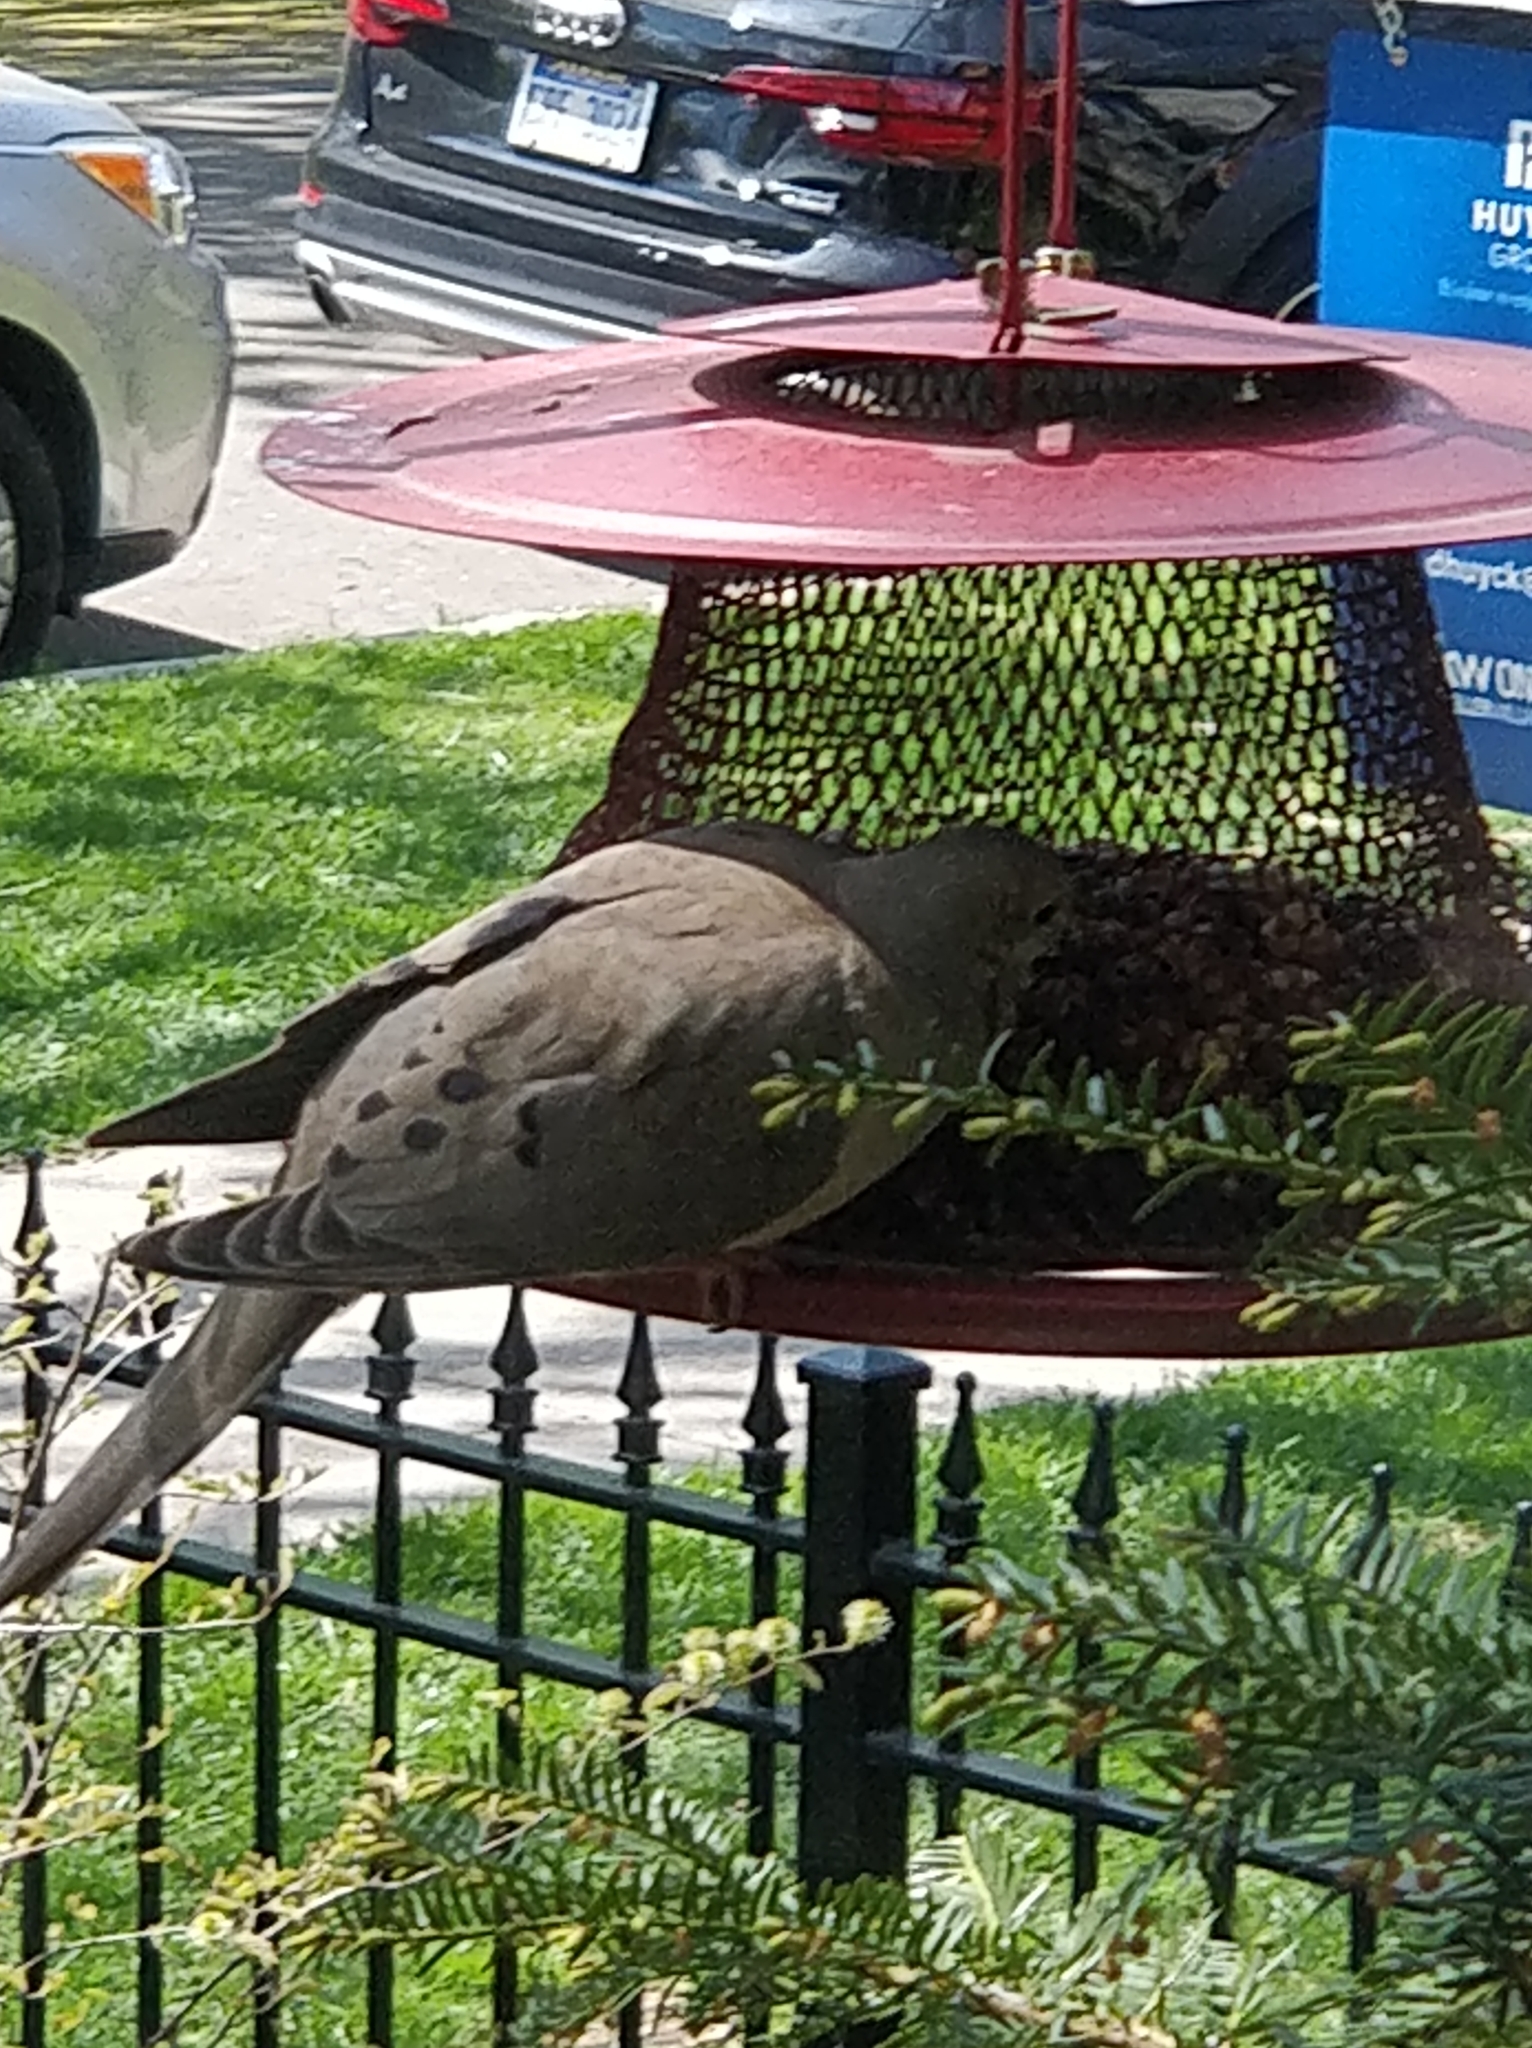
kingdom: Animalia
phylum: Chordata
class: Aves
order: Columbiformes
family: Columbidae
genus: Zenaida
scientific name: Zenaida macroura
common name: Mourning dove
